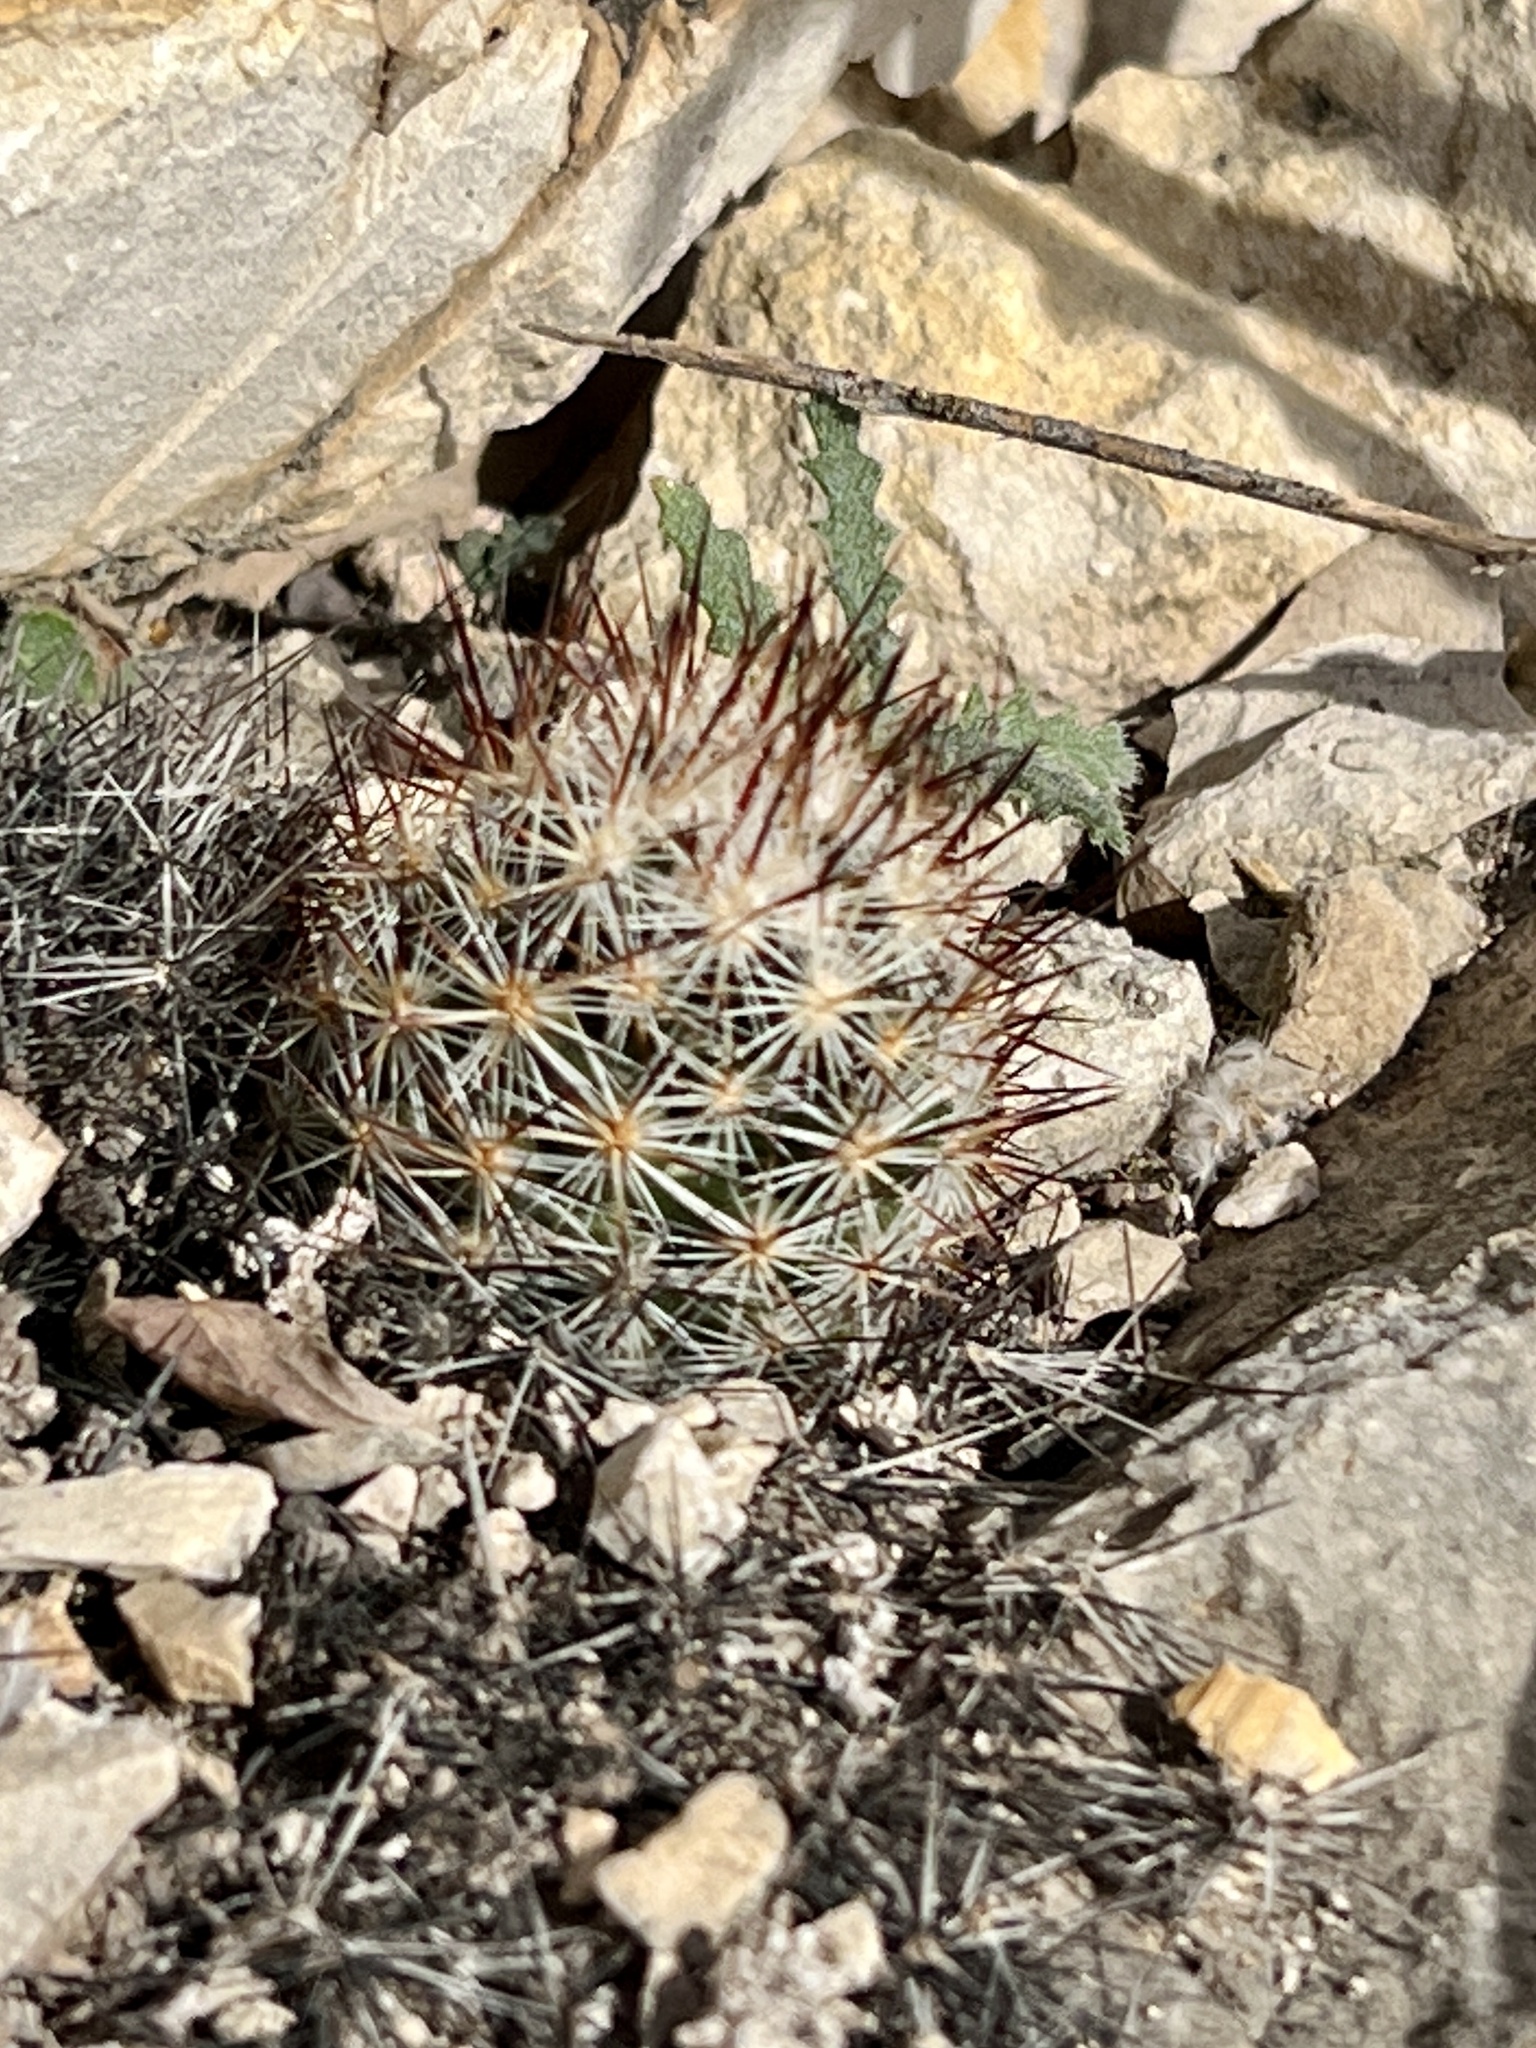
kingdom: Plantae
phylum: Tracheophyta
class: Magnoliopsida
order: Caryophyllales
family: Cactaceae
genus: Pelecyphora
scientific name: Pelecyphora emskoetteriana
